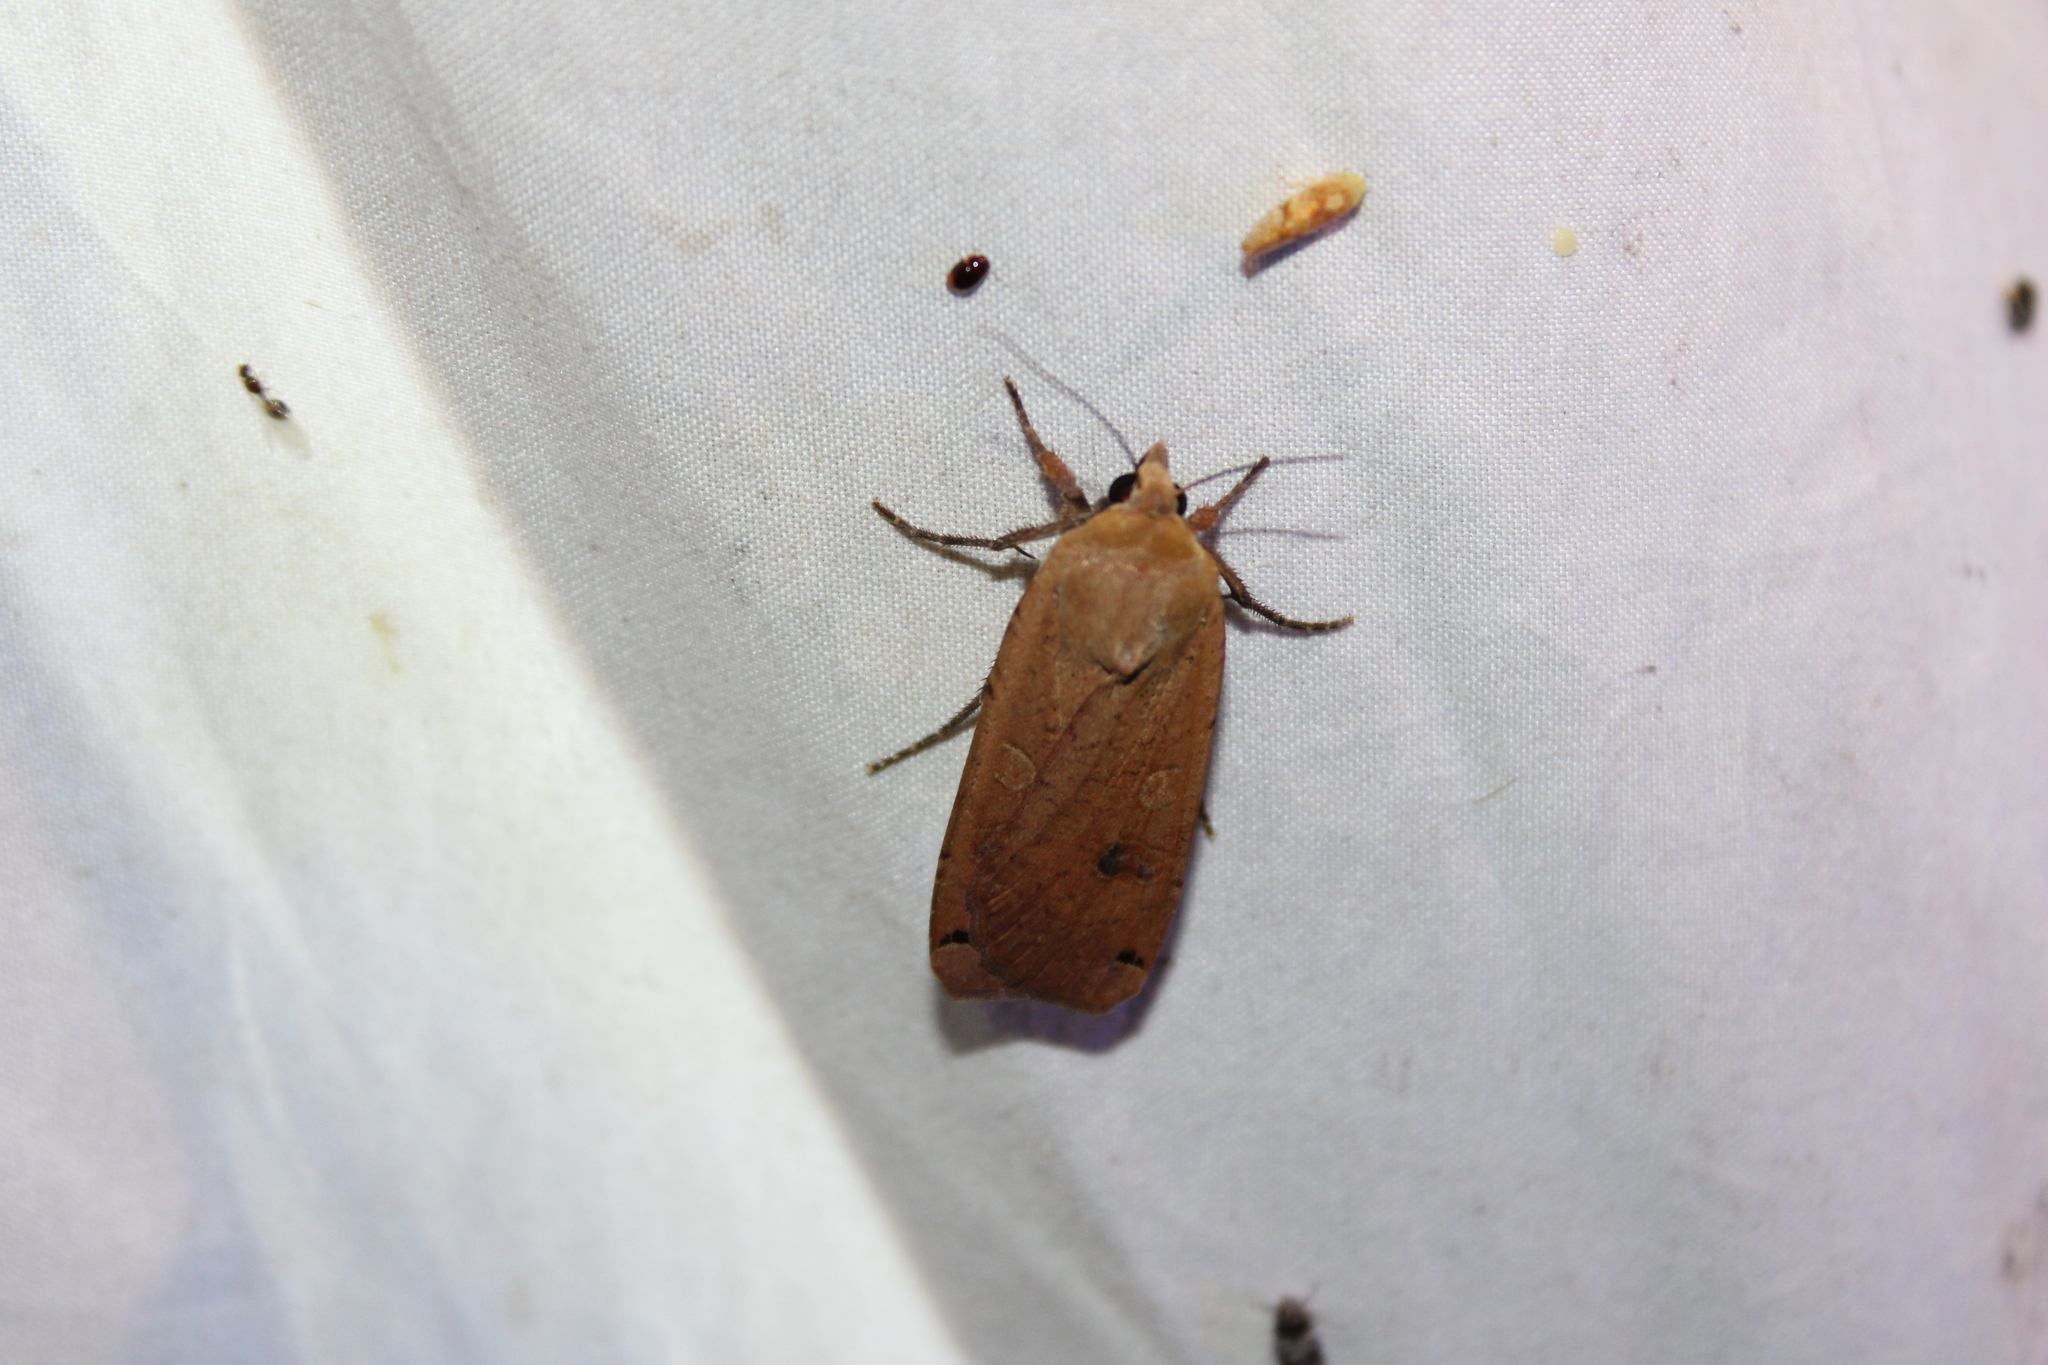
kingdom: Animalia
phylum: Arthropoda
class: Insecta
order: Lepidoptera
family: Noctuidae
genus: Noctua
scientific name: Noctua pronuba
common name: Large yellow underwing
